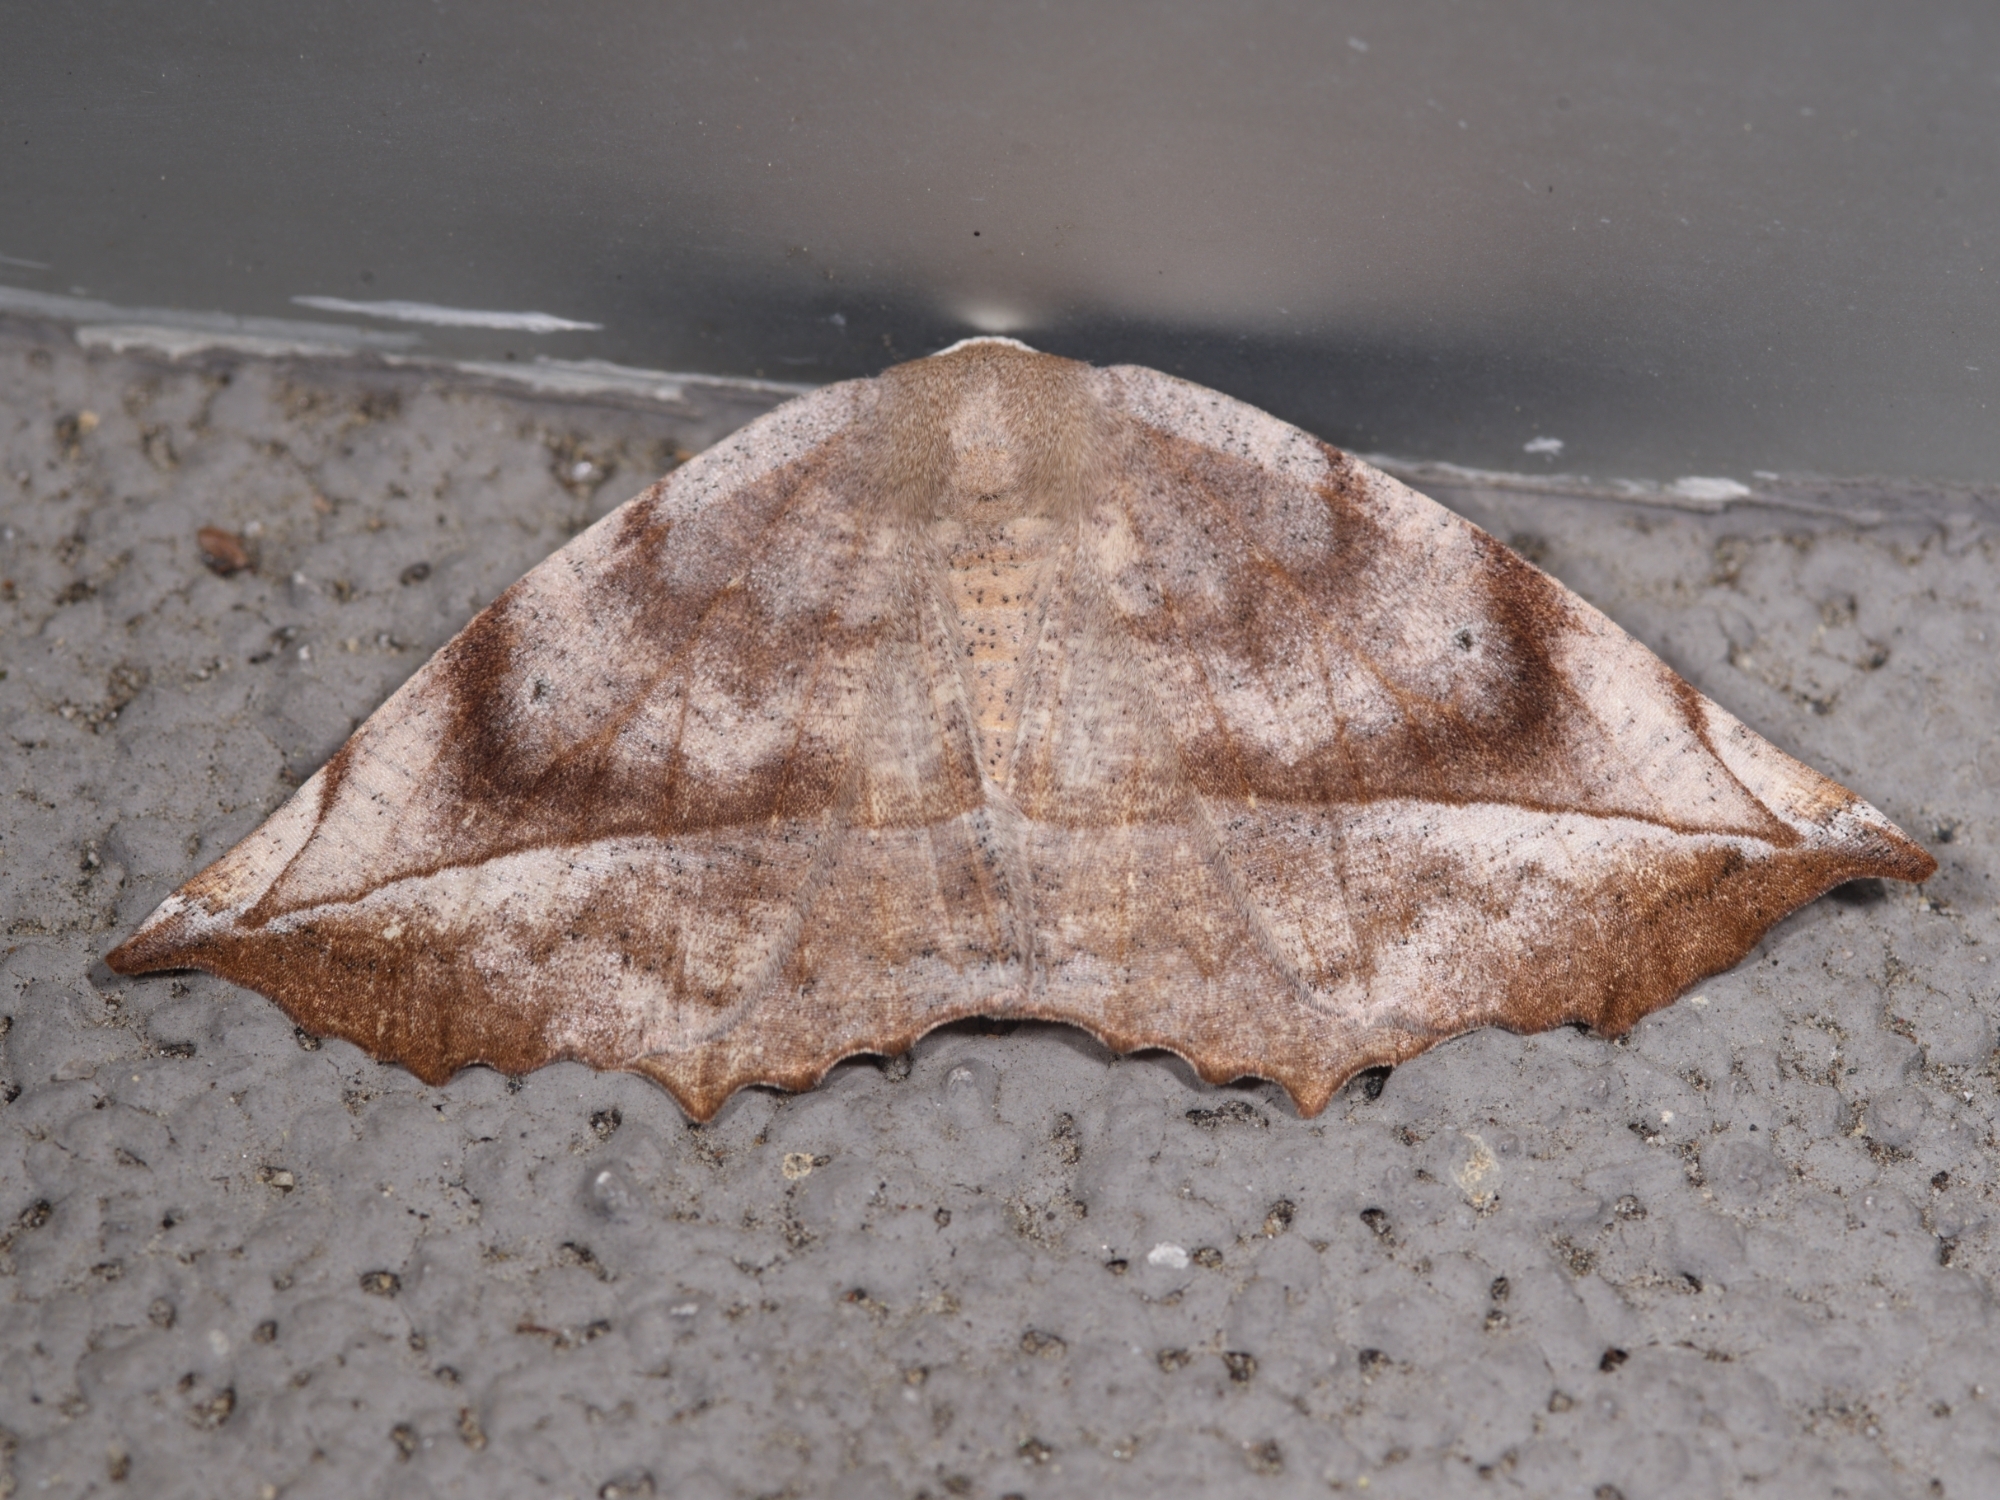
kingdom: Animalia
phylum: Arthropoda
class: Insecta
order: Lepidoptera
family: Geometridae
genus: Eutrapela
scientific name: Eutrapela clemataria
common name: Curved-toothed geometer
